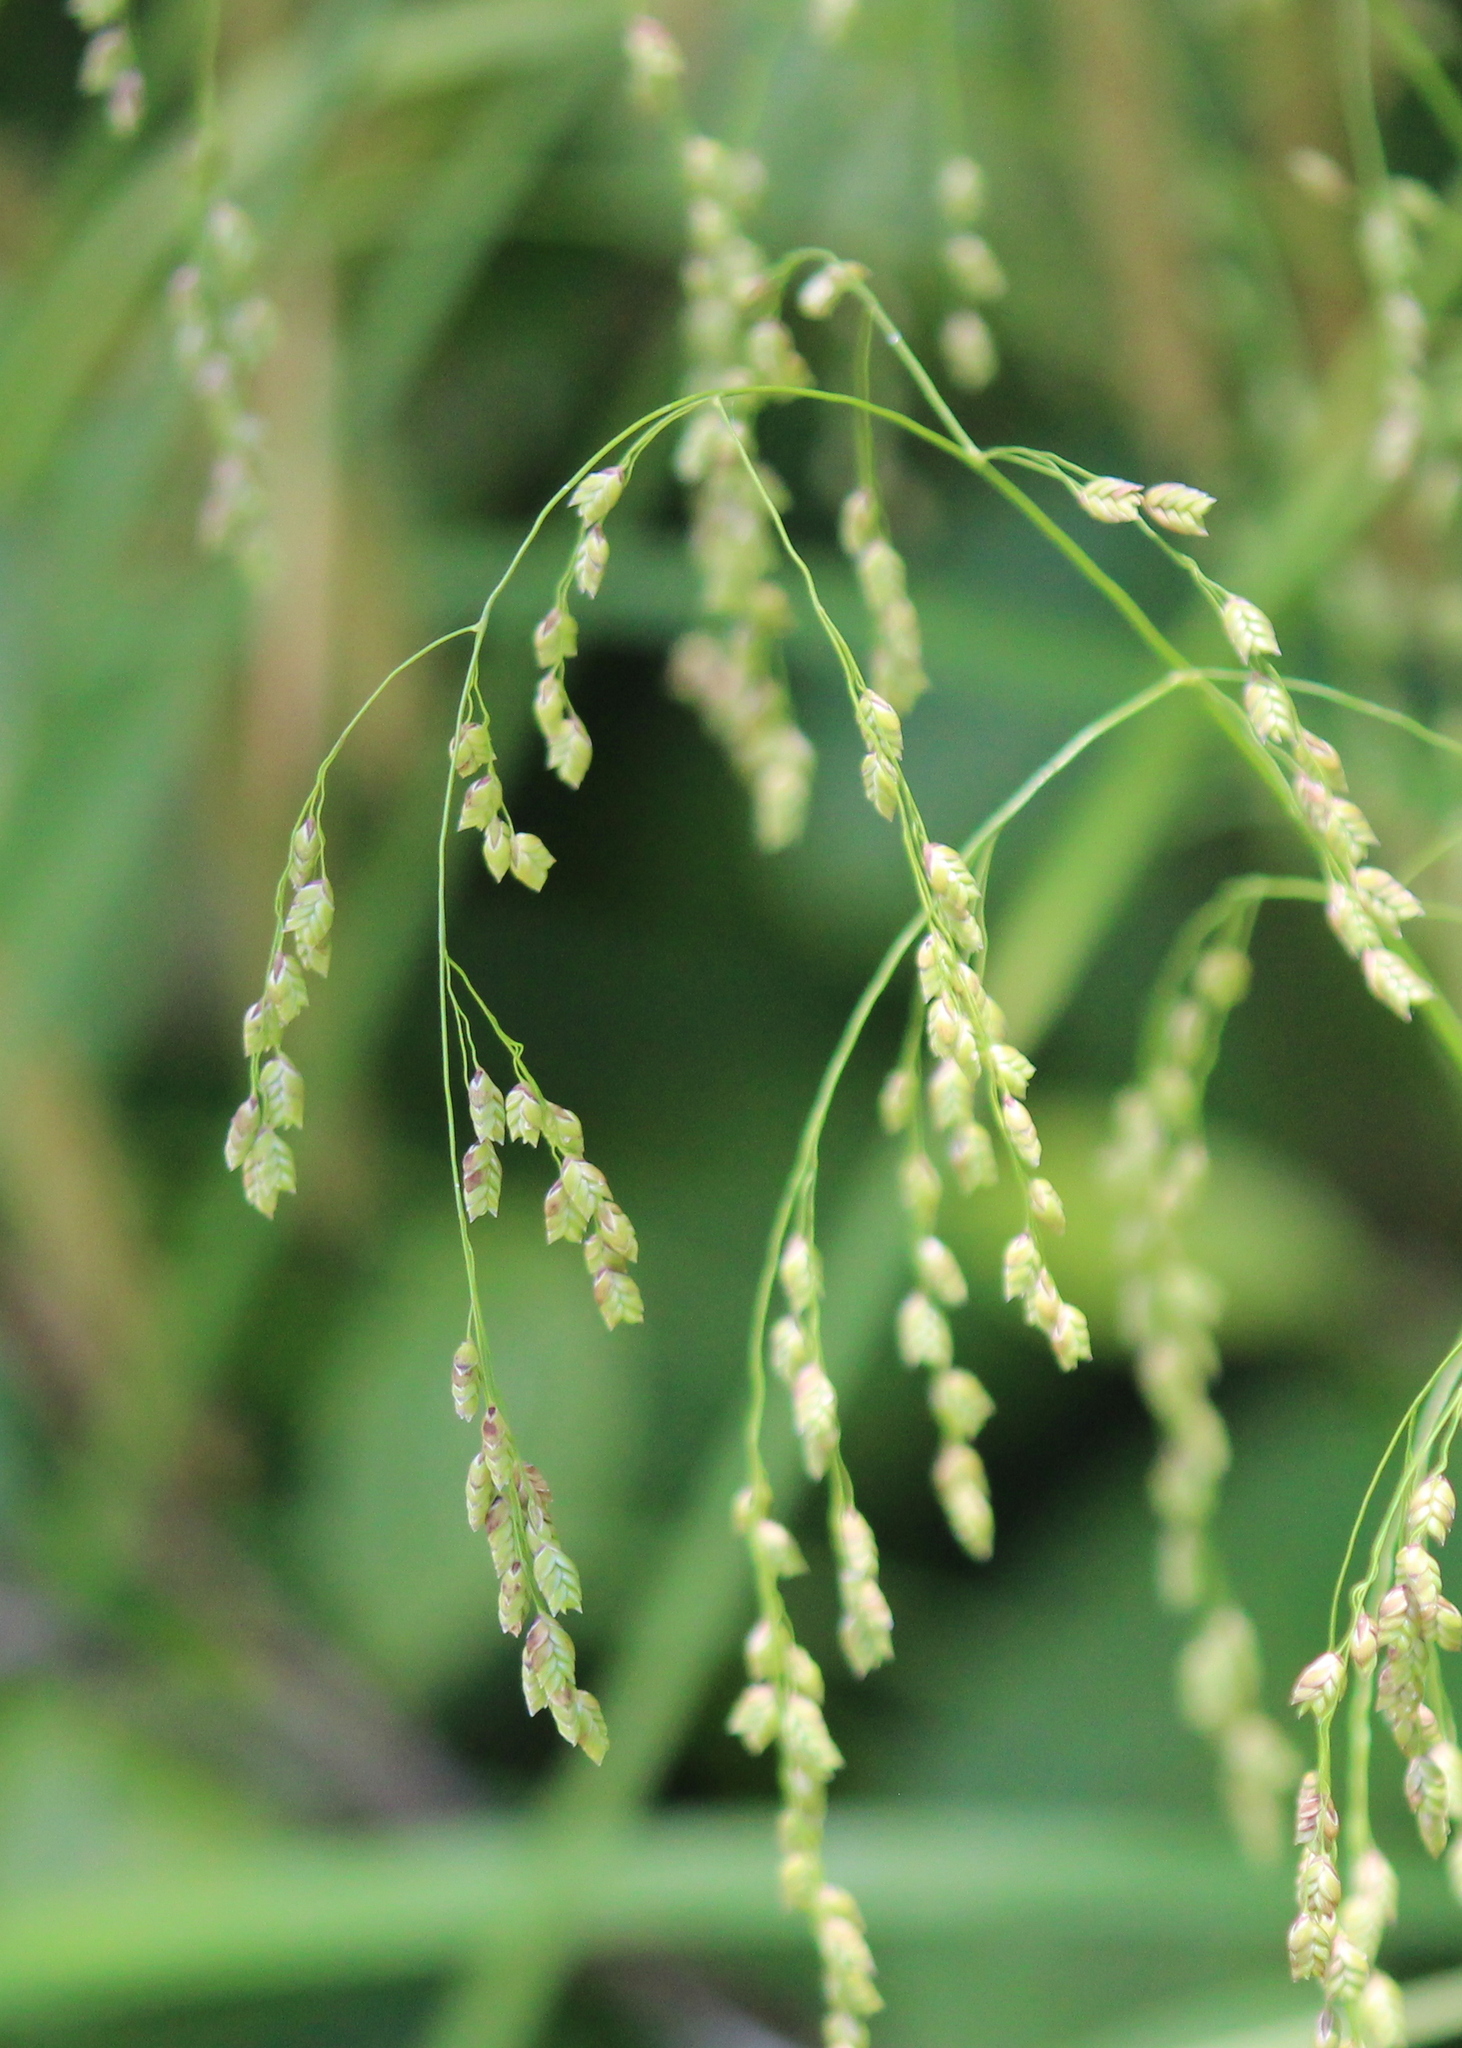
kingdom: Plantae
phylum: Tracheophyta
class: Liliopsida
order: Poales
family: Poaceae
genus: Glyceria
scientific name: Glyceria canadensis
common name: Canada mannagrass
